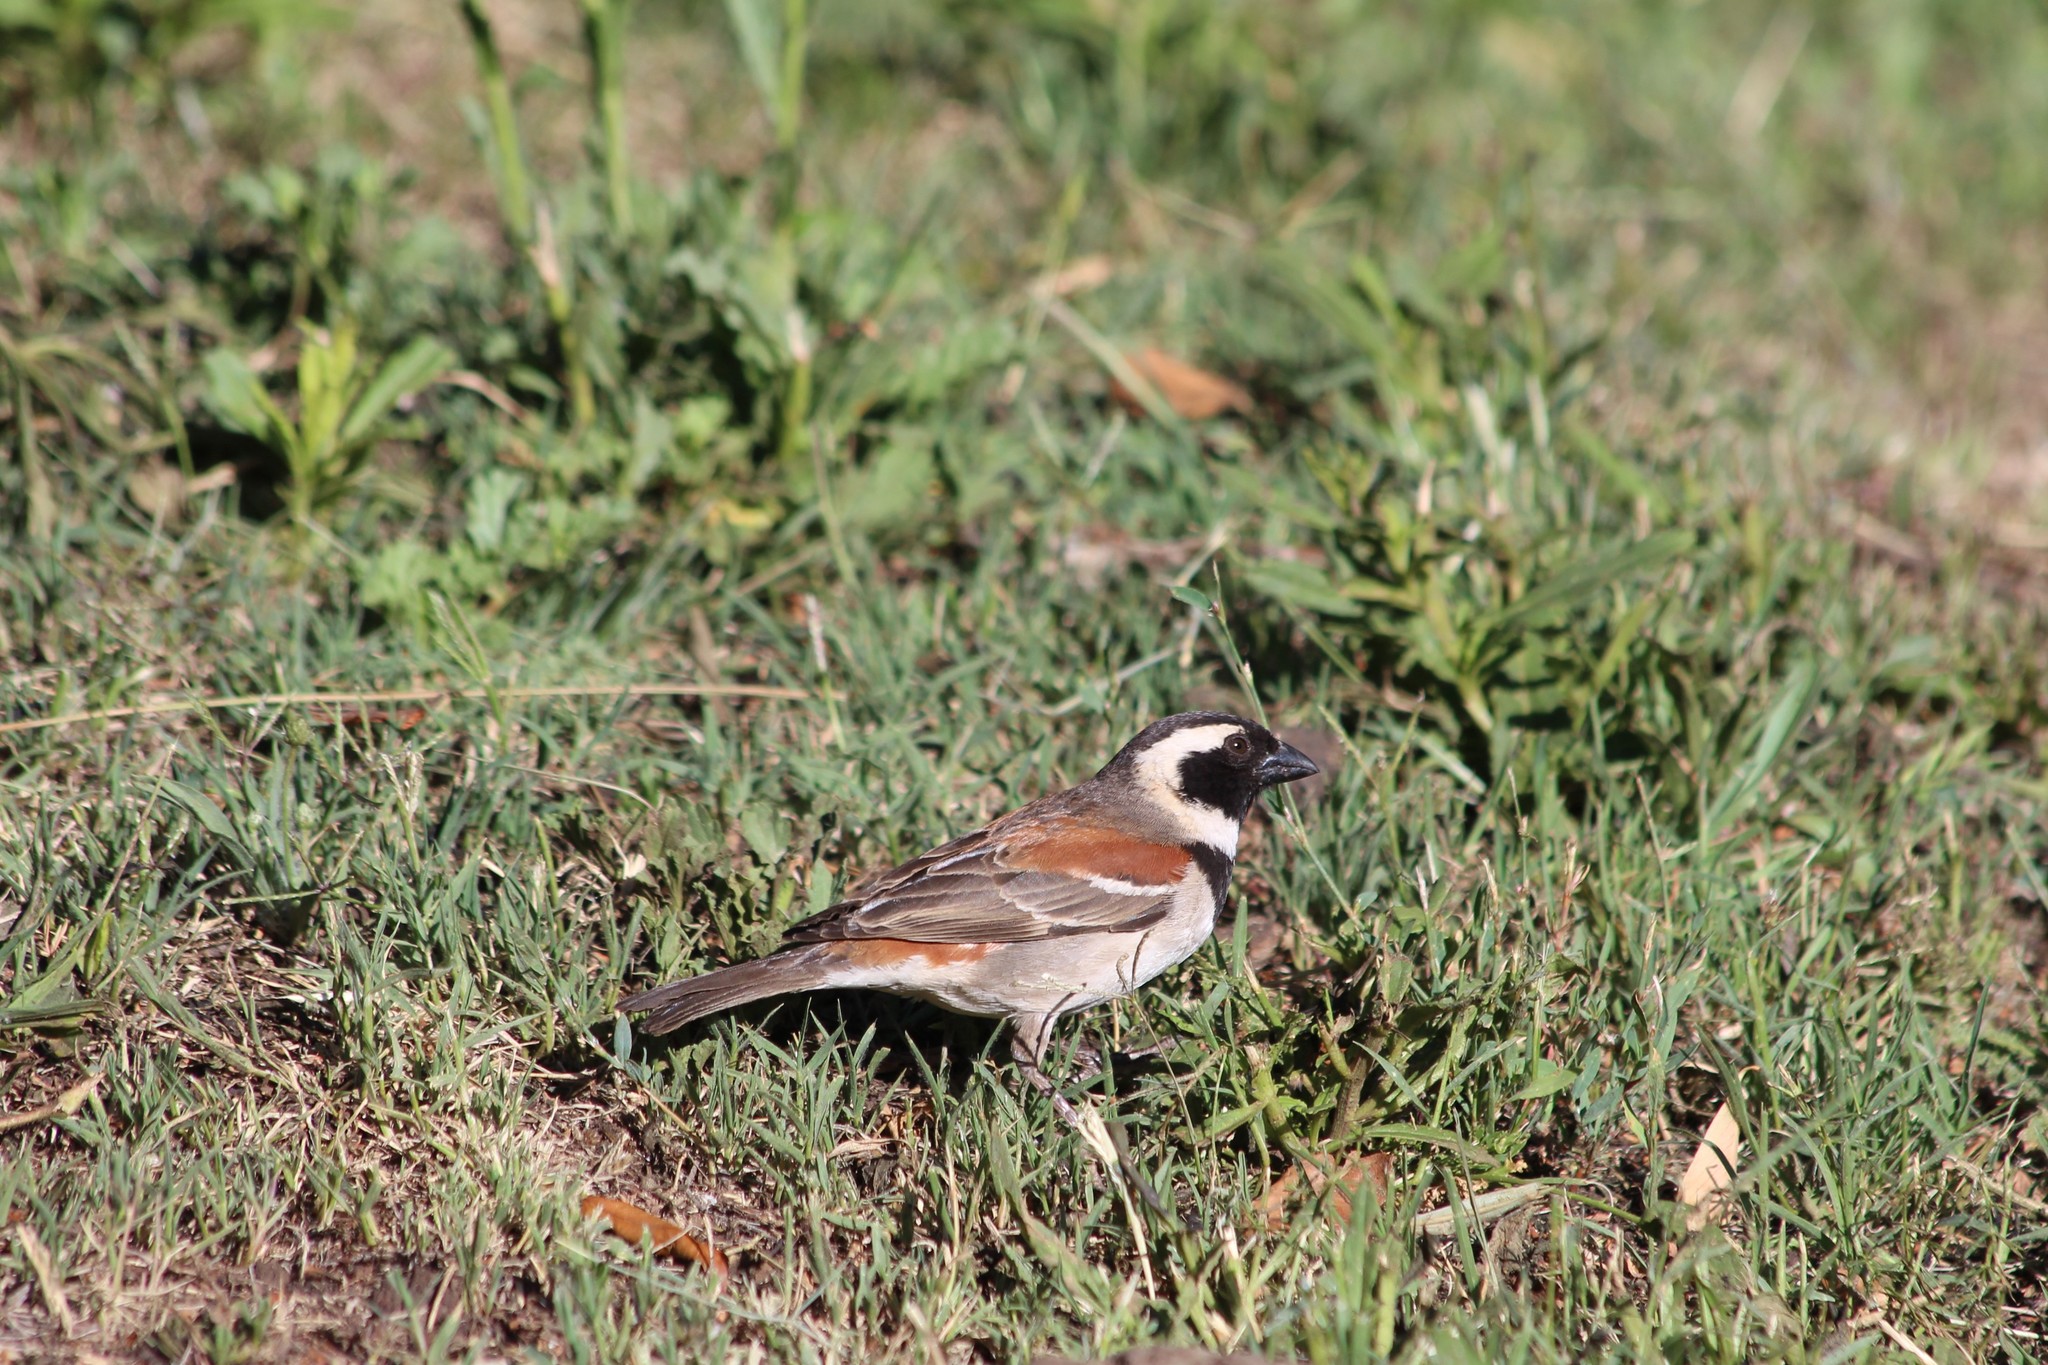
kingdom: Animalia
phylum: Chordata
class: Aves
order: Passeriformes
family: Passeridae
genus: Passer
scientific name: Passer melanurus
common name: Cape sparrow
